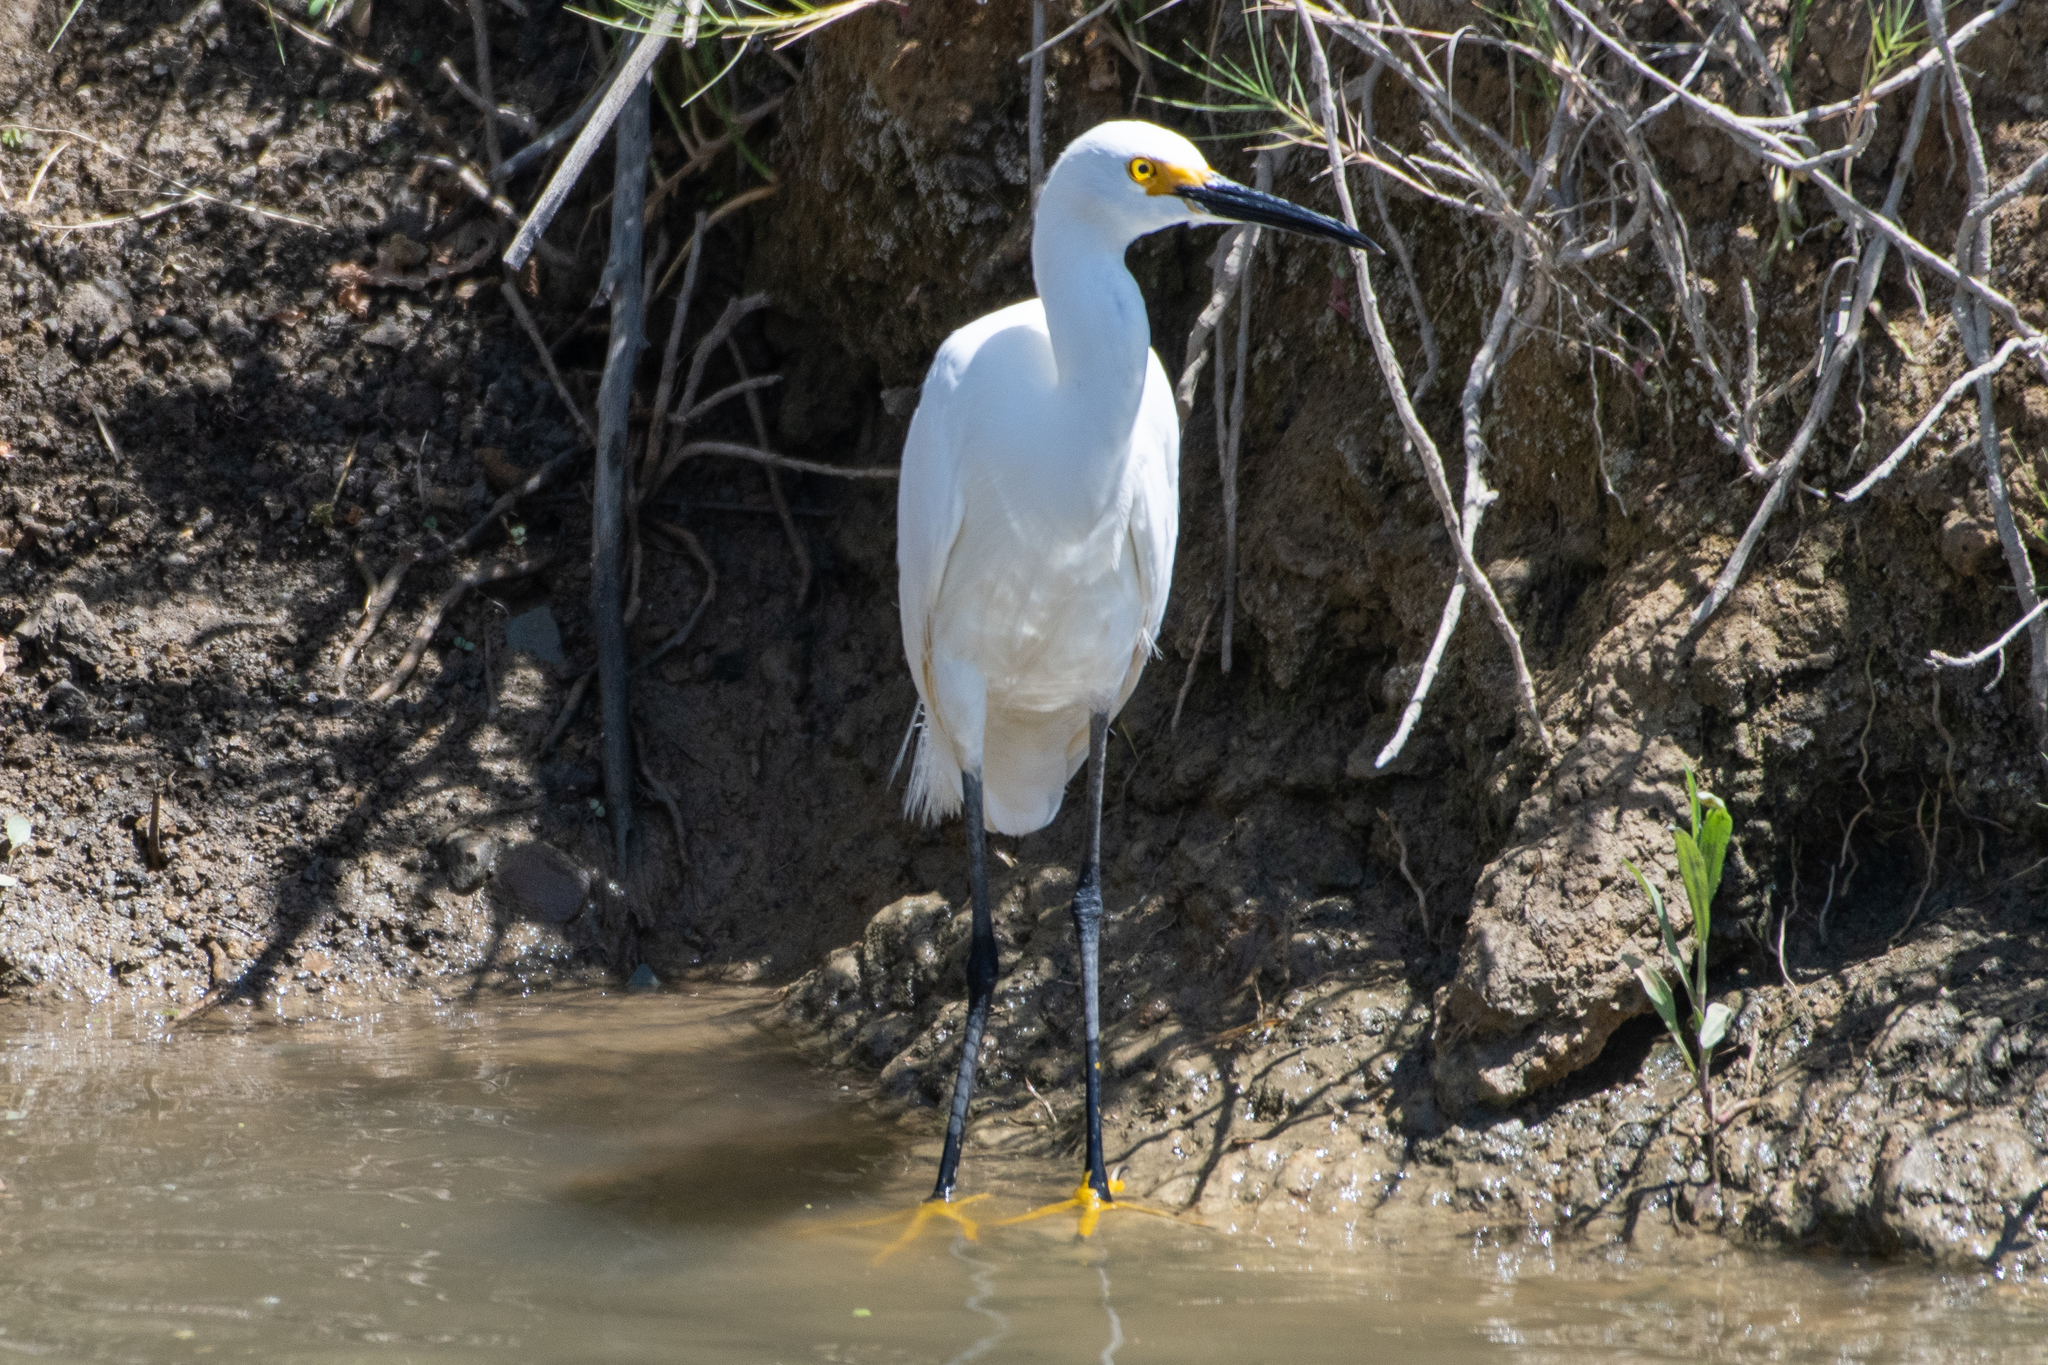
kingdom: Animalia
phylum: Chordata
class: Aves
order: Pelecaniformes
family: Ardeidae
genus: Egretta
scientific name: Egretta thula
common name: Snowy egret
